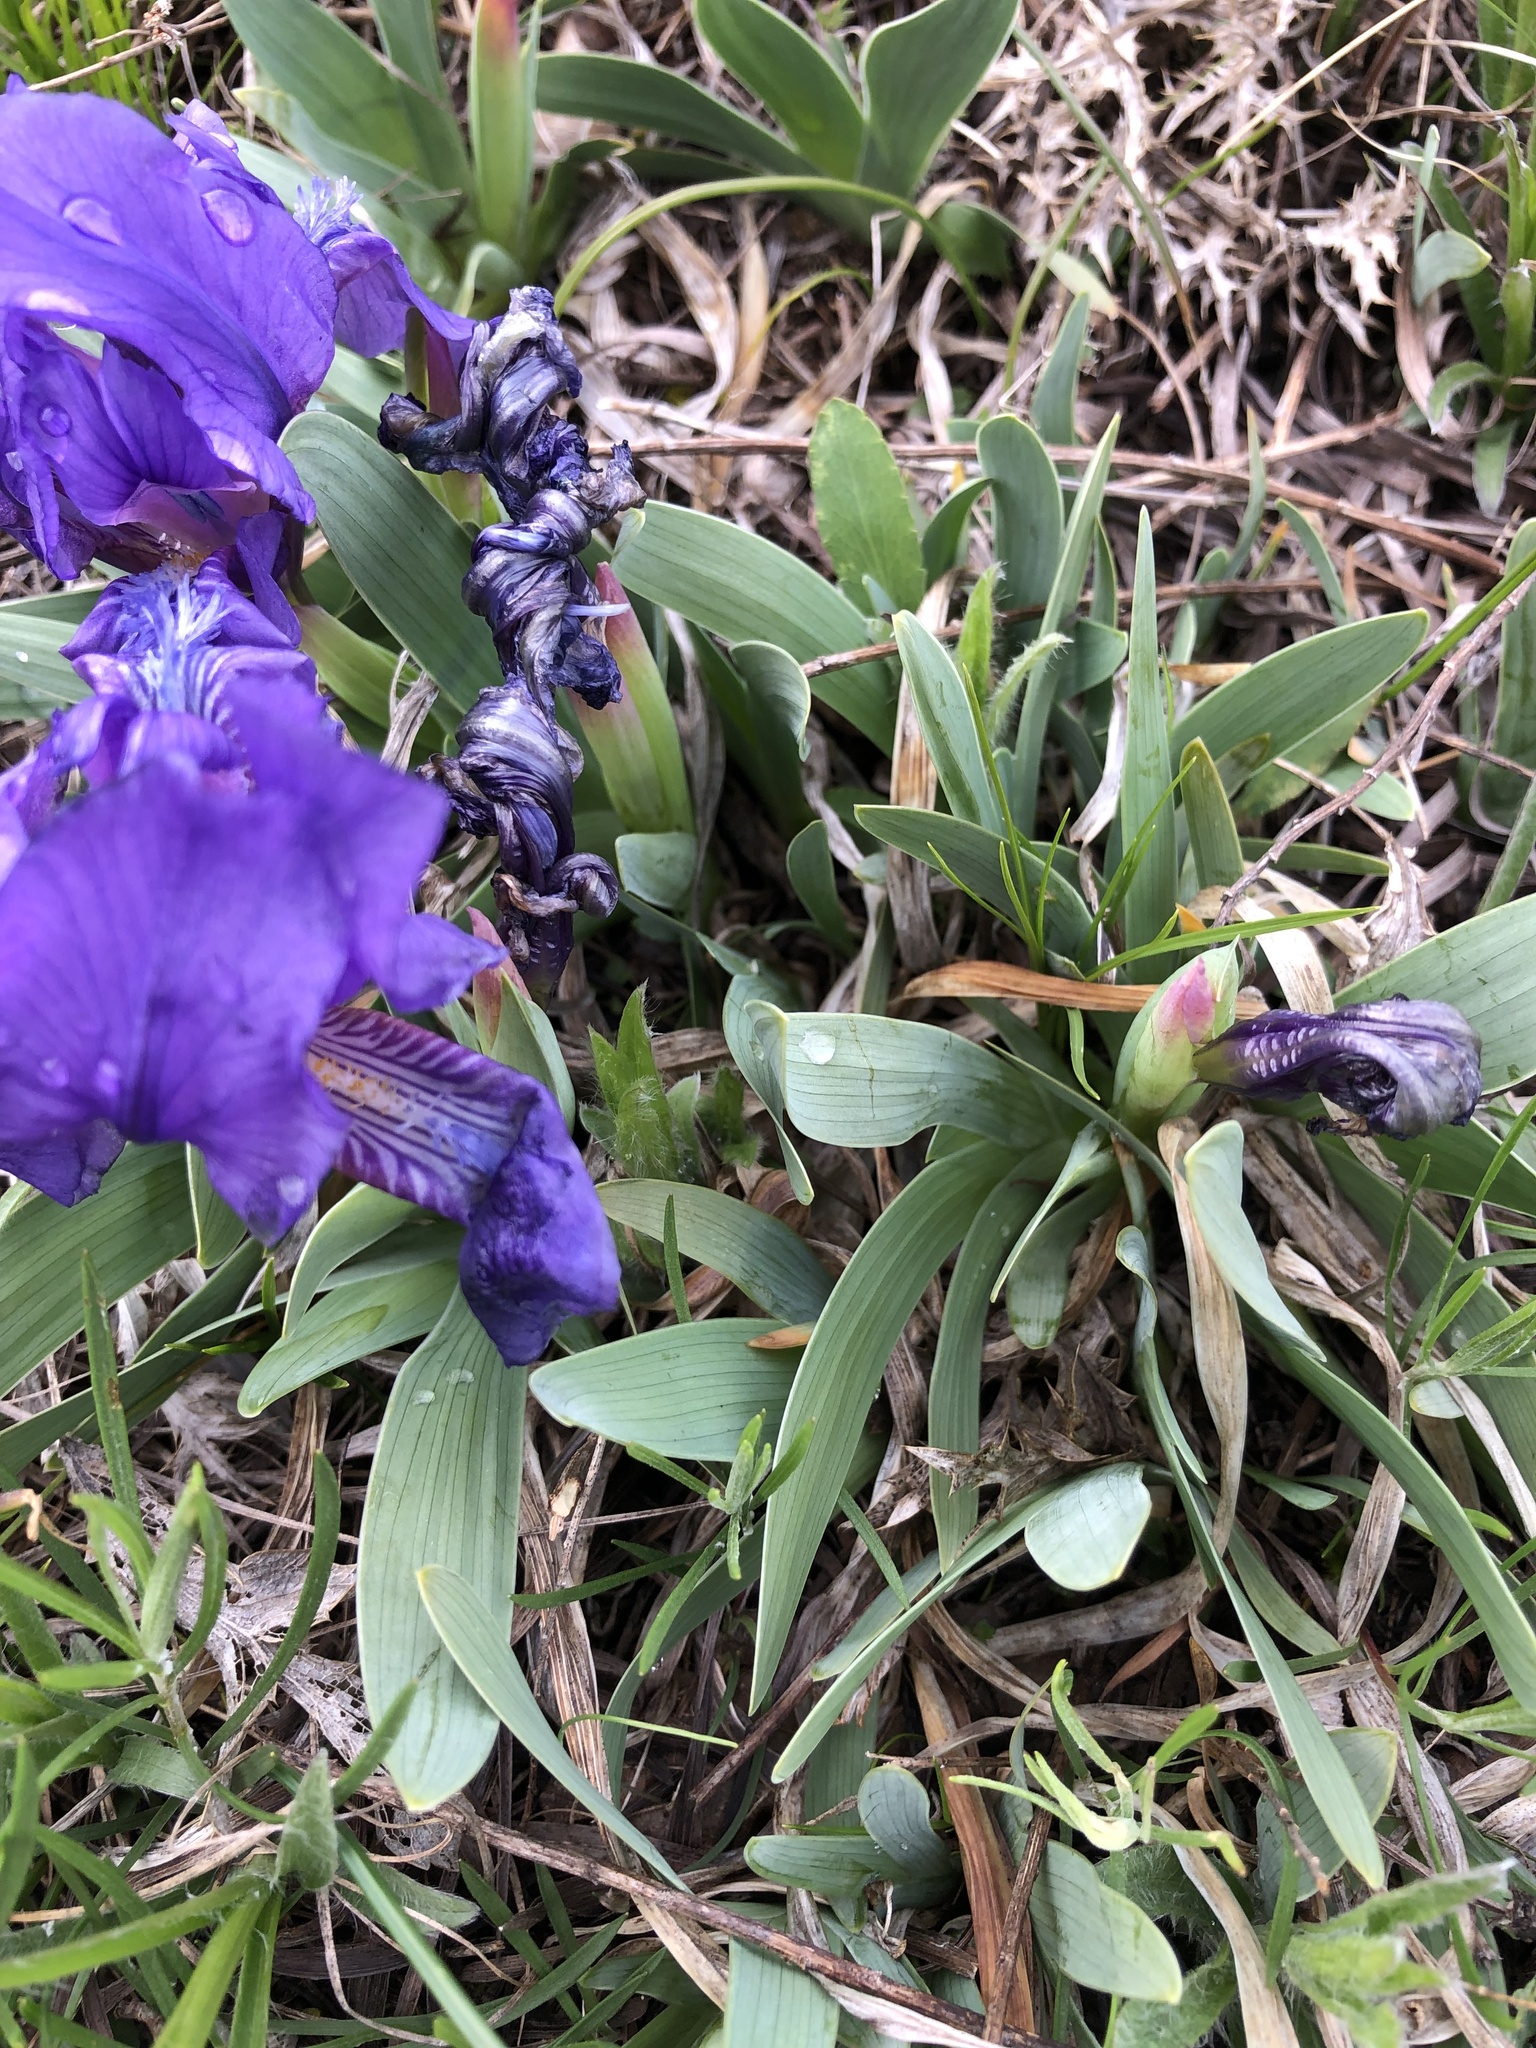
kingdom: Plantae
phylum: Tracheophyta
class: Liliopsida
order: Asparagales
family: Iridaceae
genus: Iris
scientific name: Iris pumila
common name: Dwarf iris
